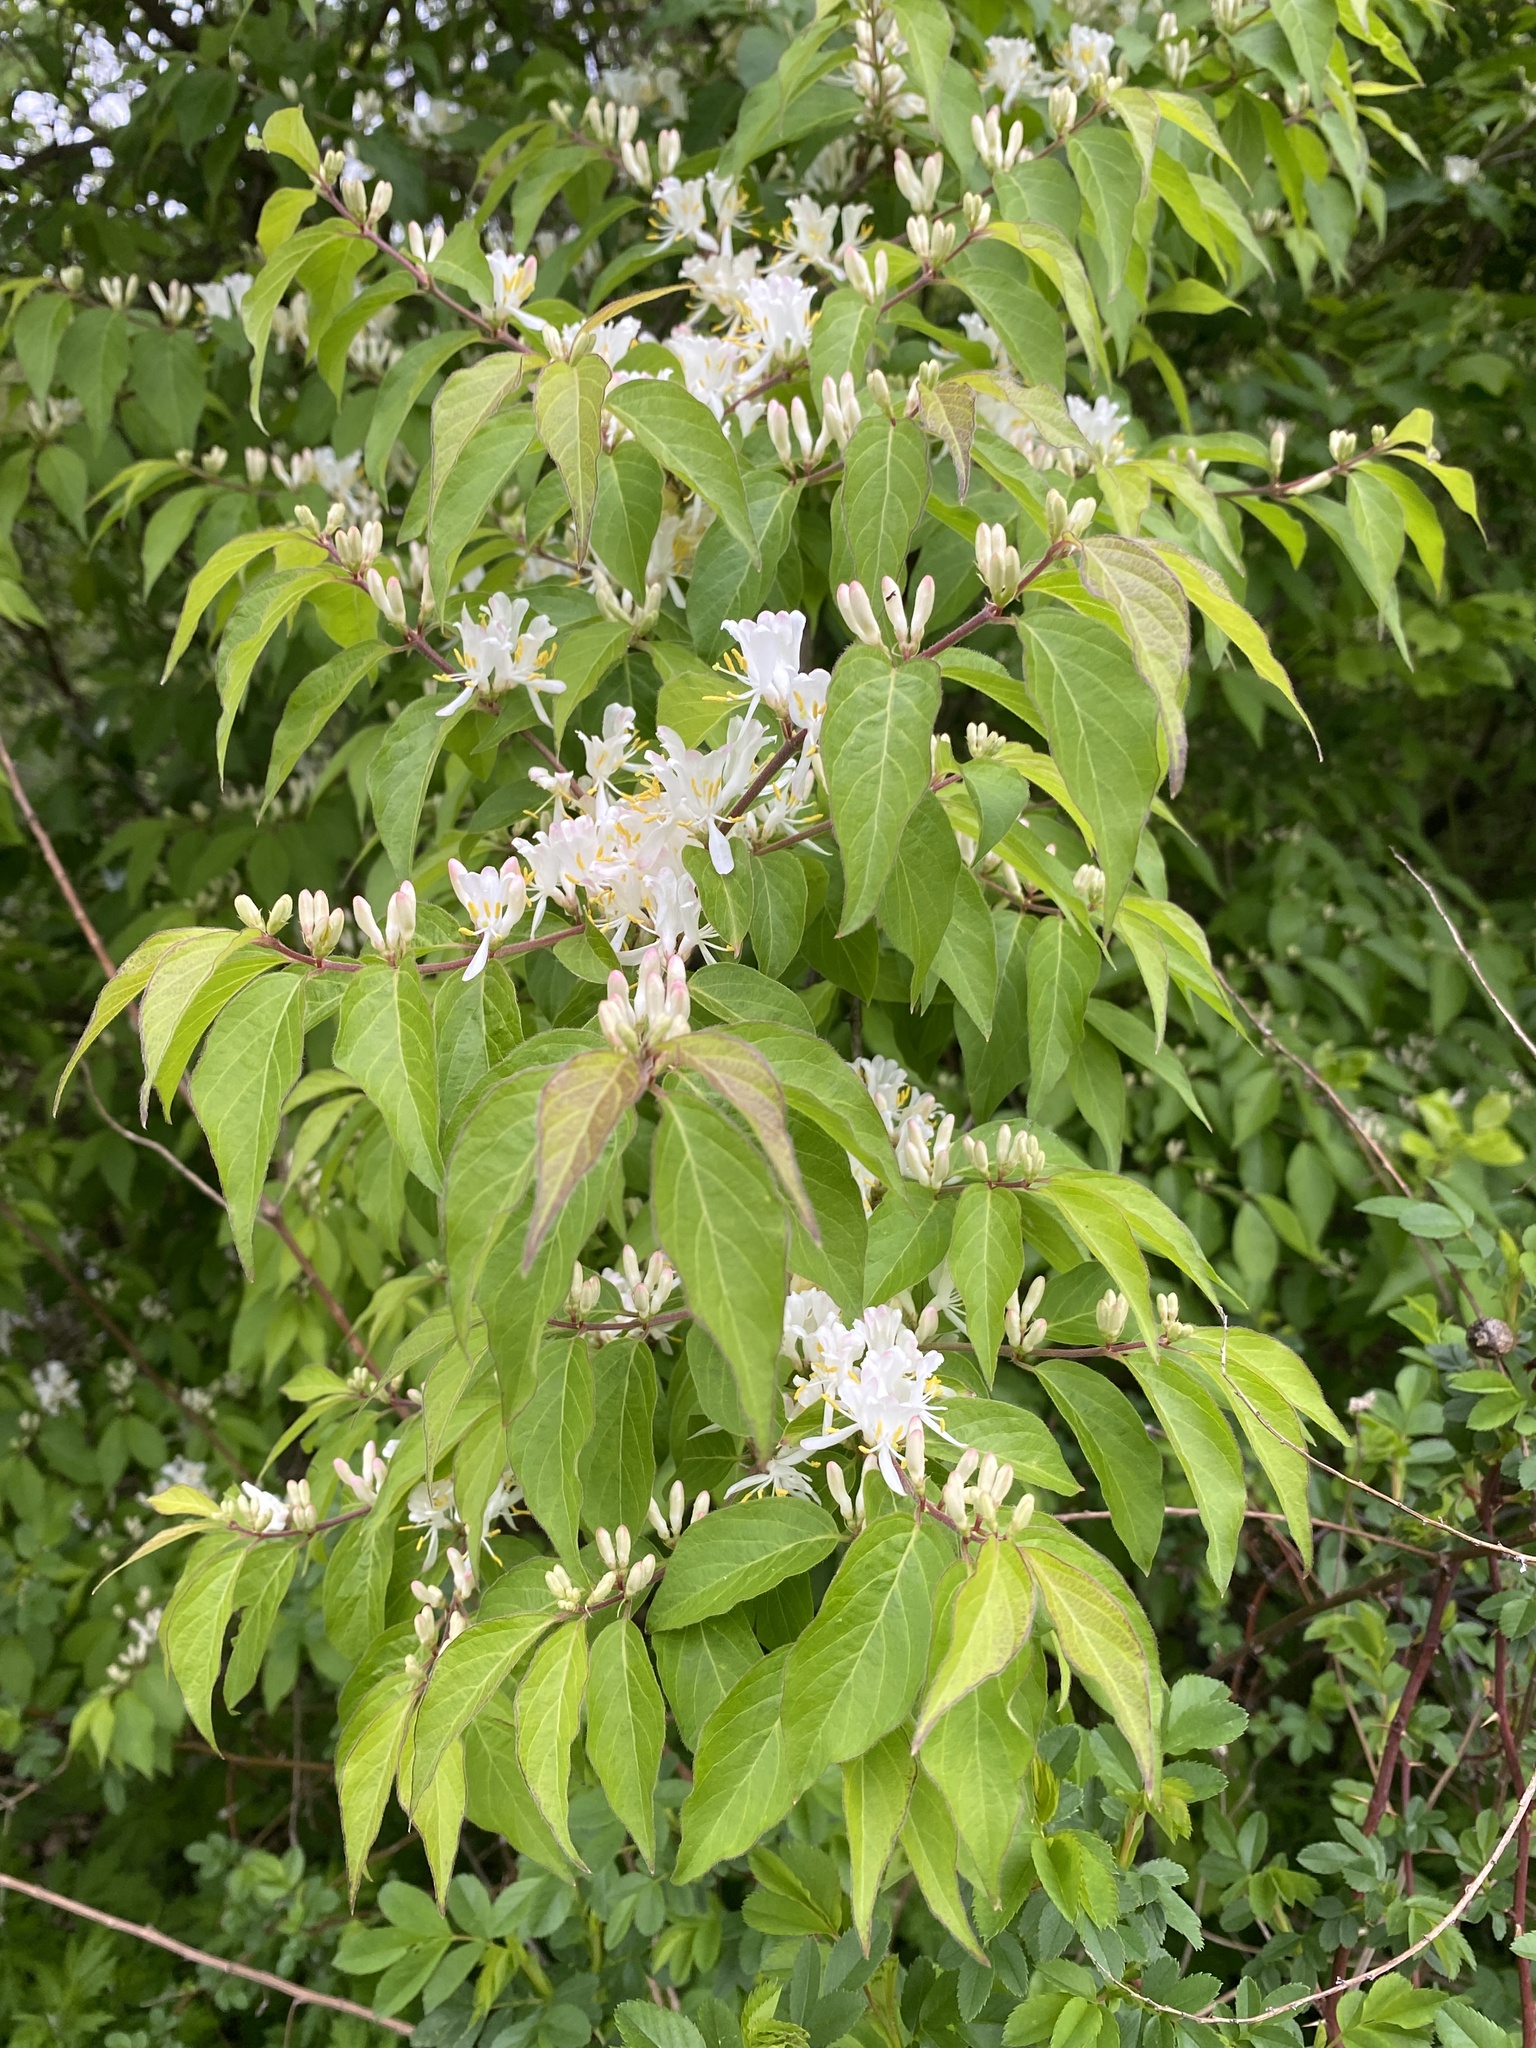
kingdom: Plantae
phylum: Tracheophyta
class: Magnoliopsida
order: Dipsacales
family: Caprifoliaceae
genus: Lonicera
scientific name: Lonicera maackii
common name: Amur honeysuckle
